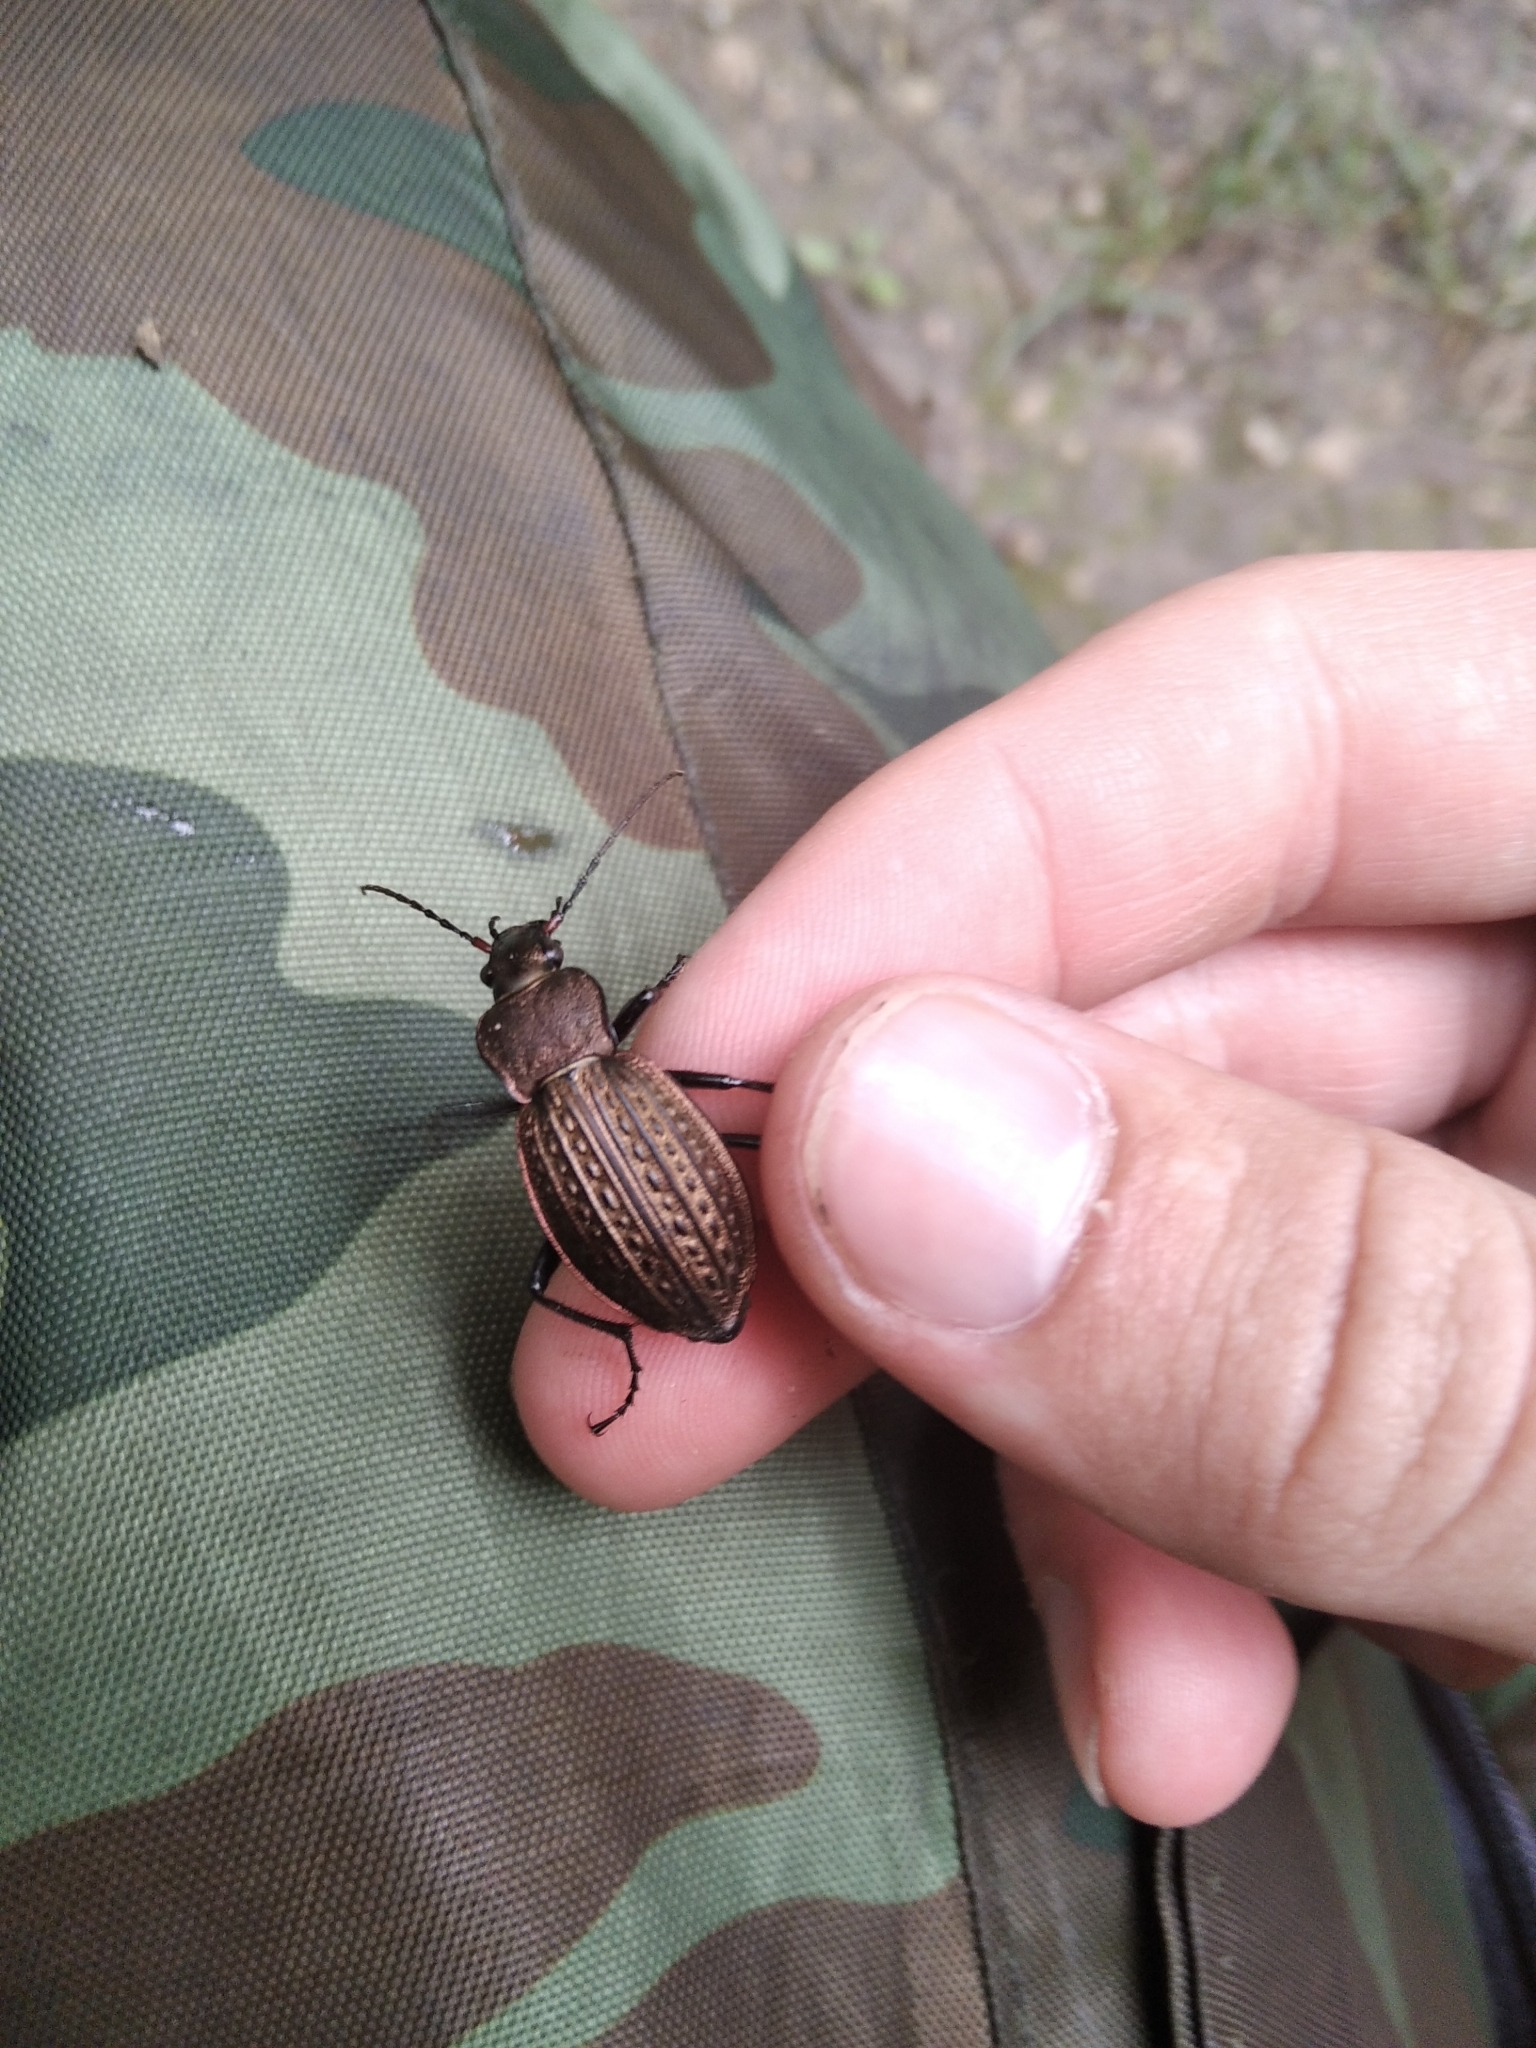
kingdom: Animalia
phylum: Arthropoda
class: Insecta
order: Coleoptera
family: Carabidae
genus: Carabus
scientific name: Carabus cancellatus
